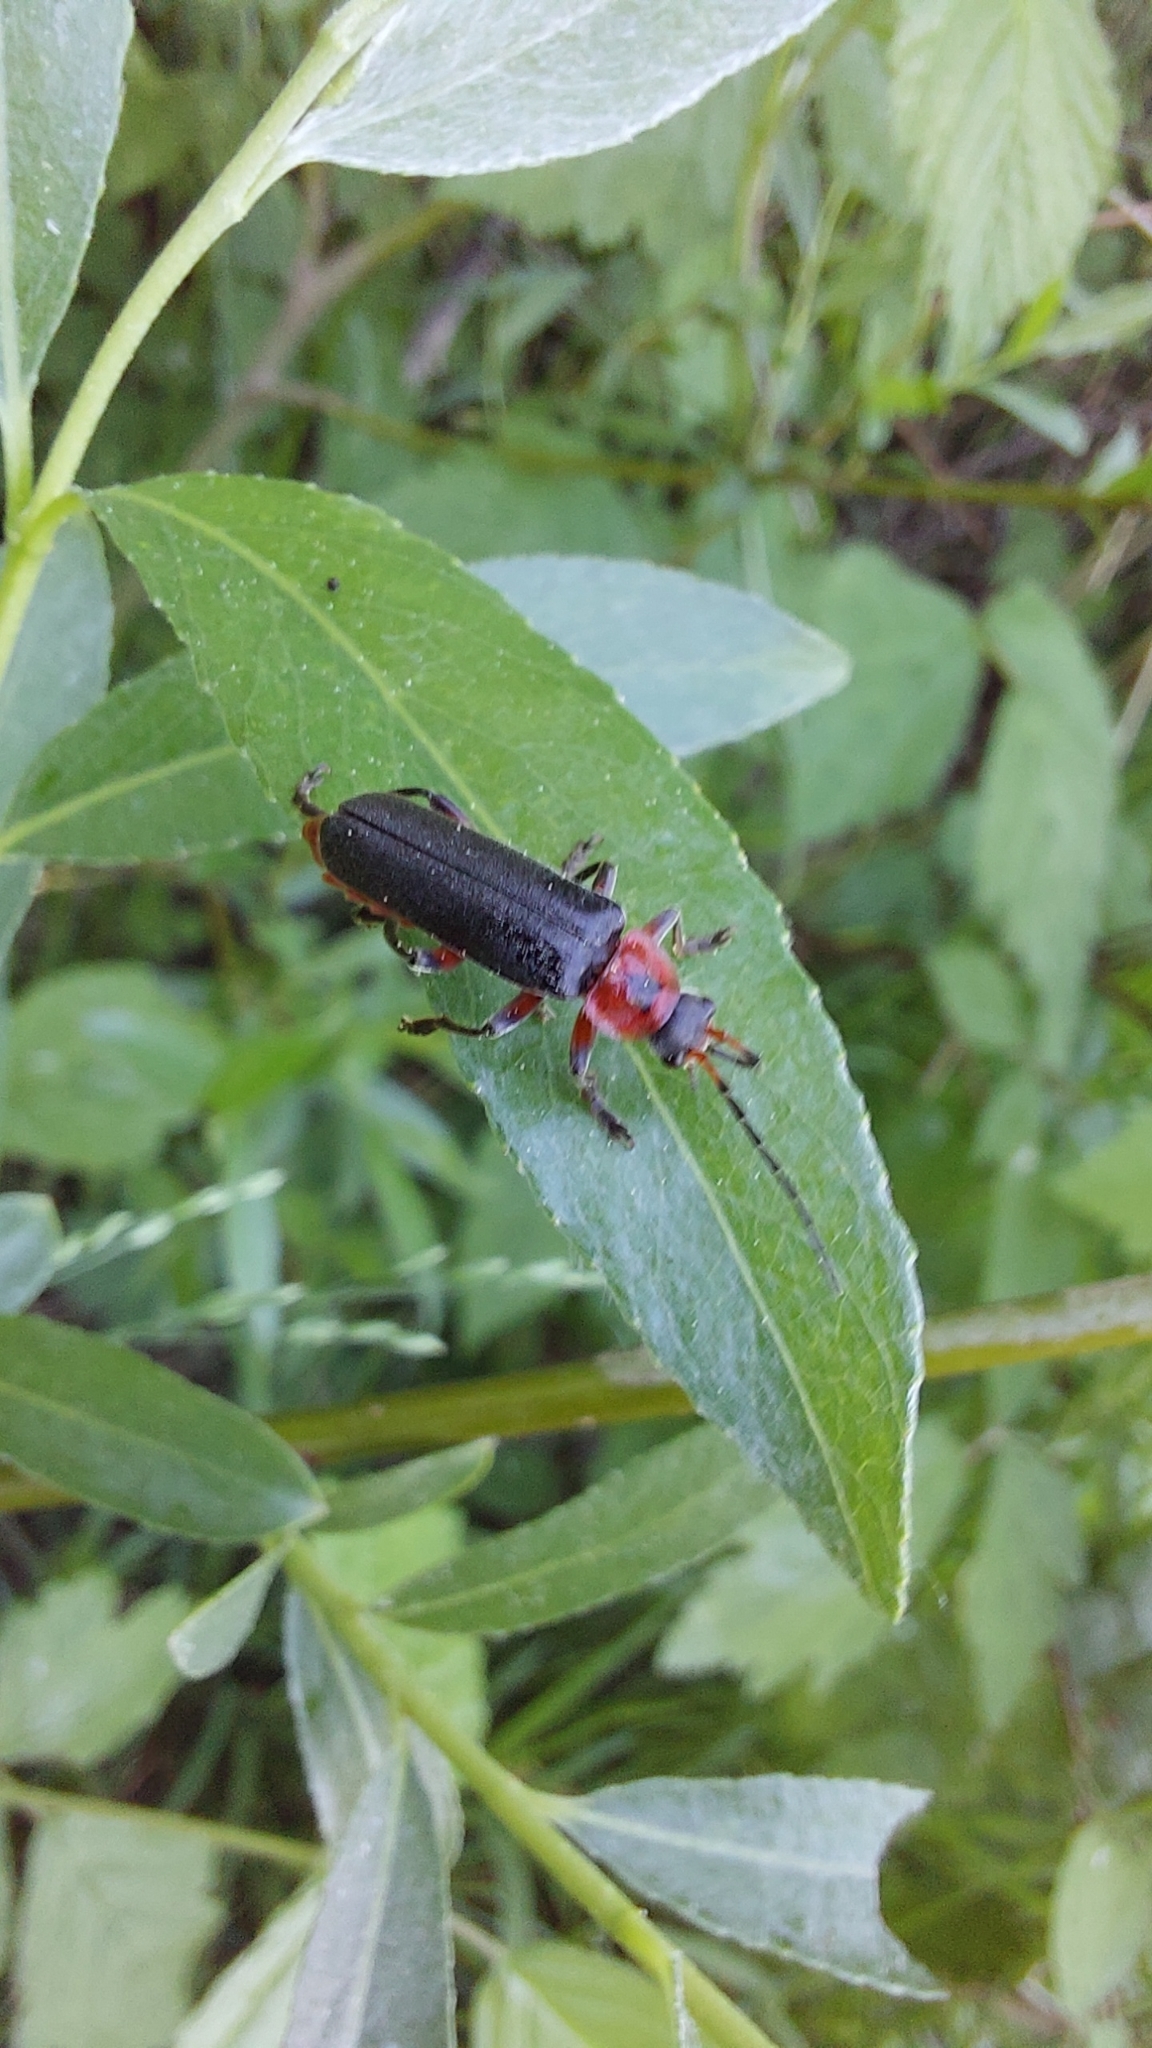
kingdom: Animalia
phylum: Arthropoda
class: Insecta
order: Coleoptera
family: Cantharidae
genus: Cantharis
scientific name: Cantharis rustica
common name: Soldier beetle
